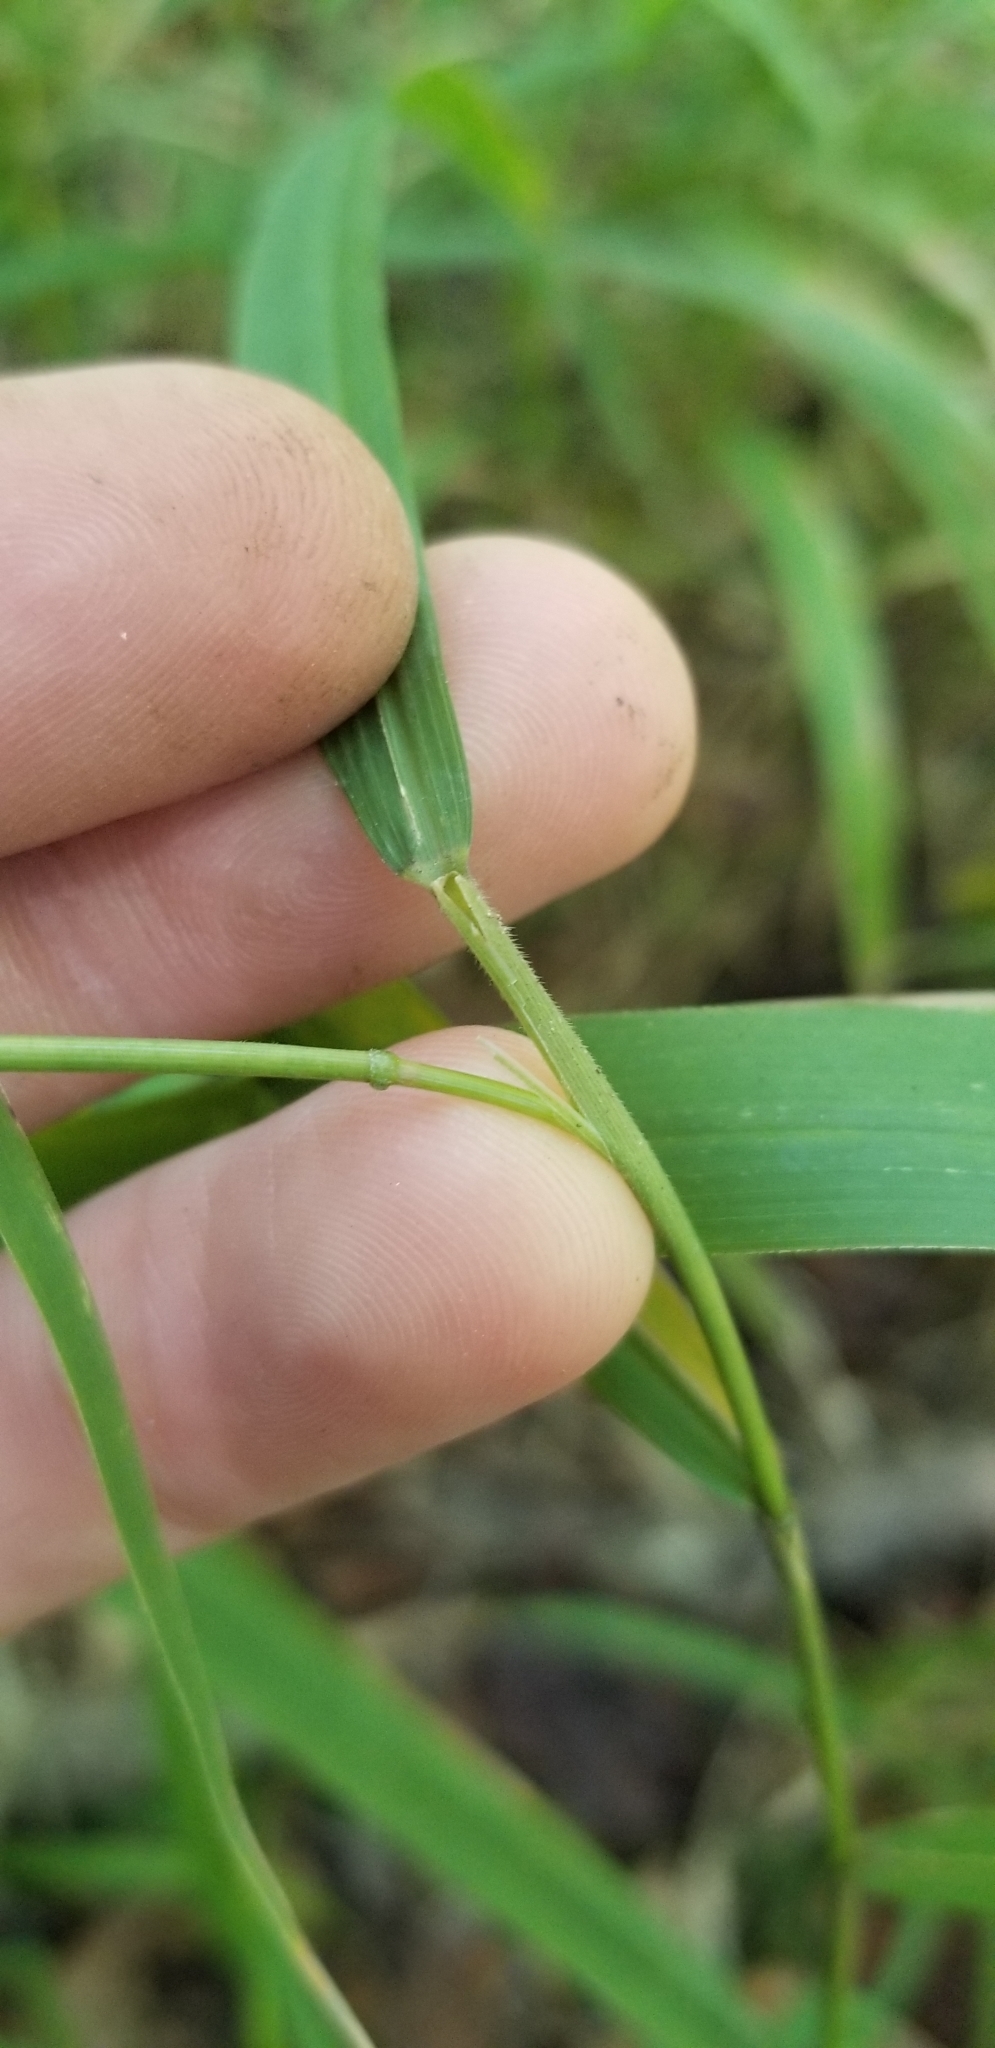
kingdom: Plantae
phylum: Tracheophyta
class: Liliopsida
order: Poales
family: Poaceae
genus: Leersia
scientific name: Leersia oryzoides
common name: Cut-grass
